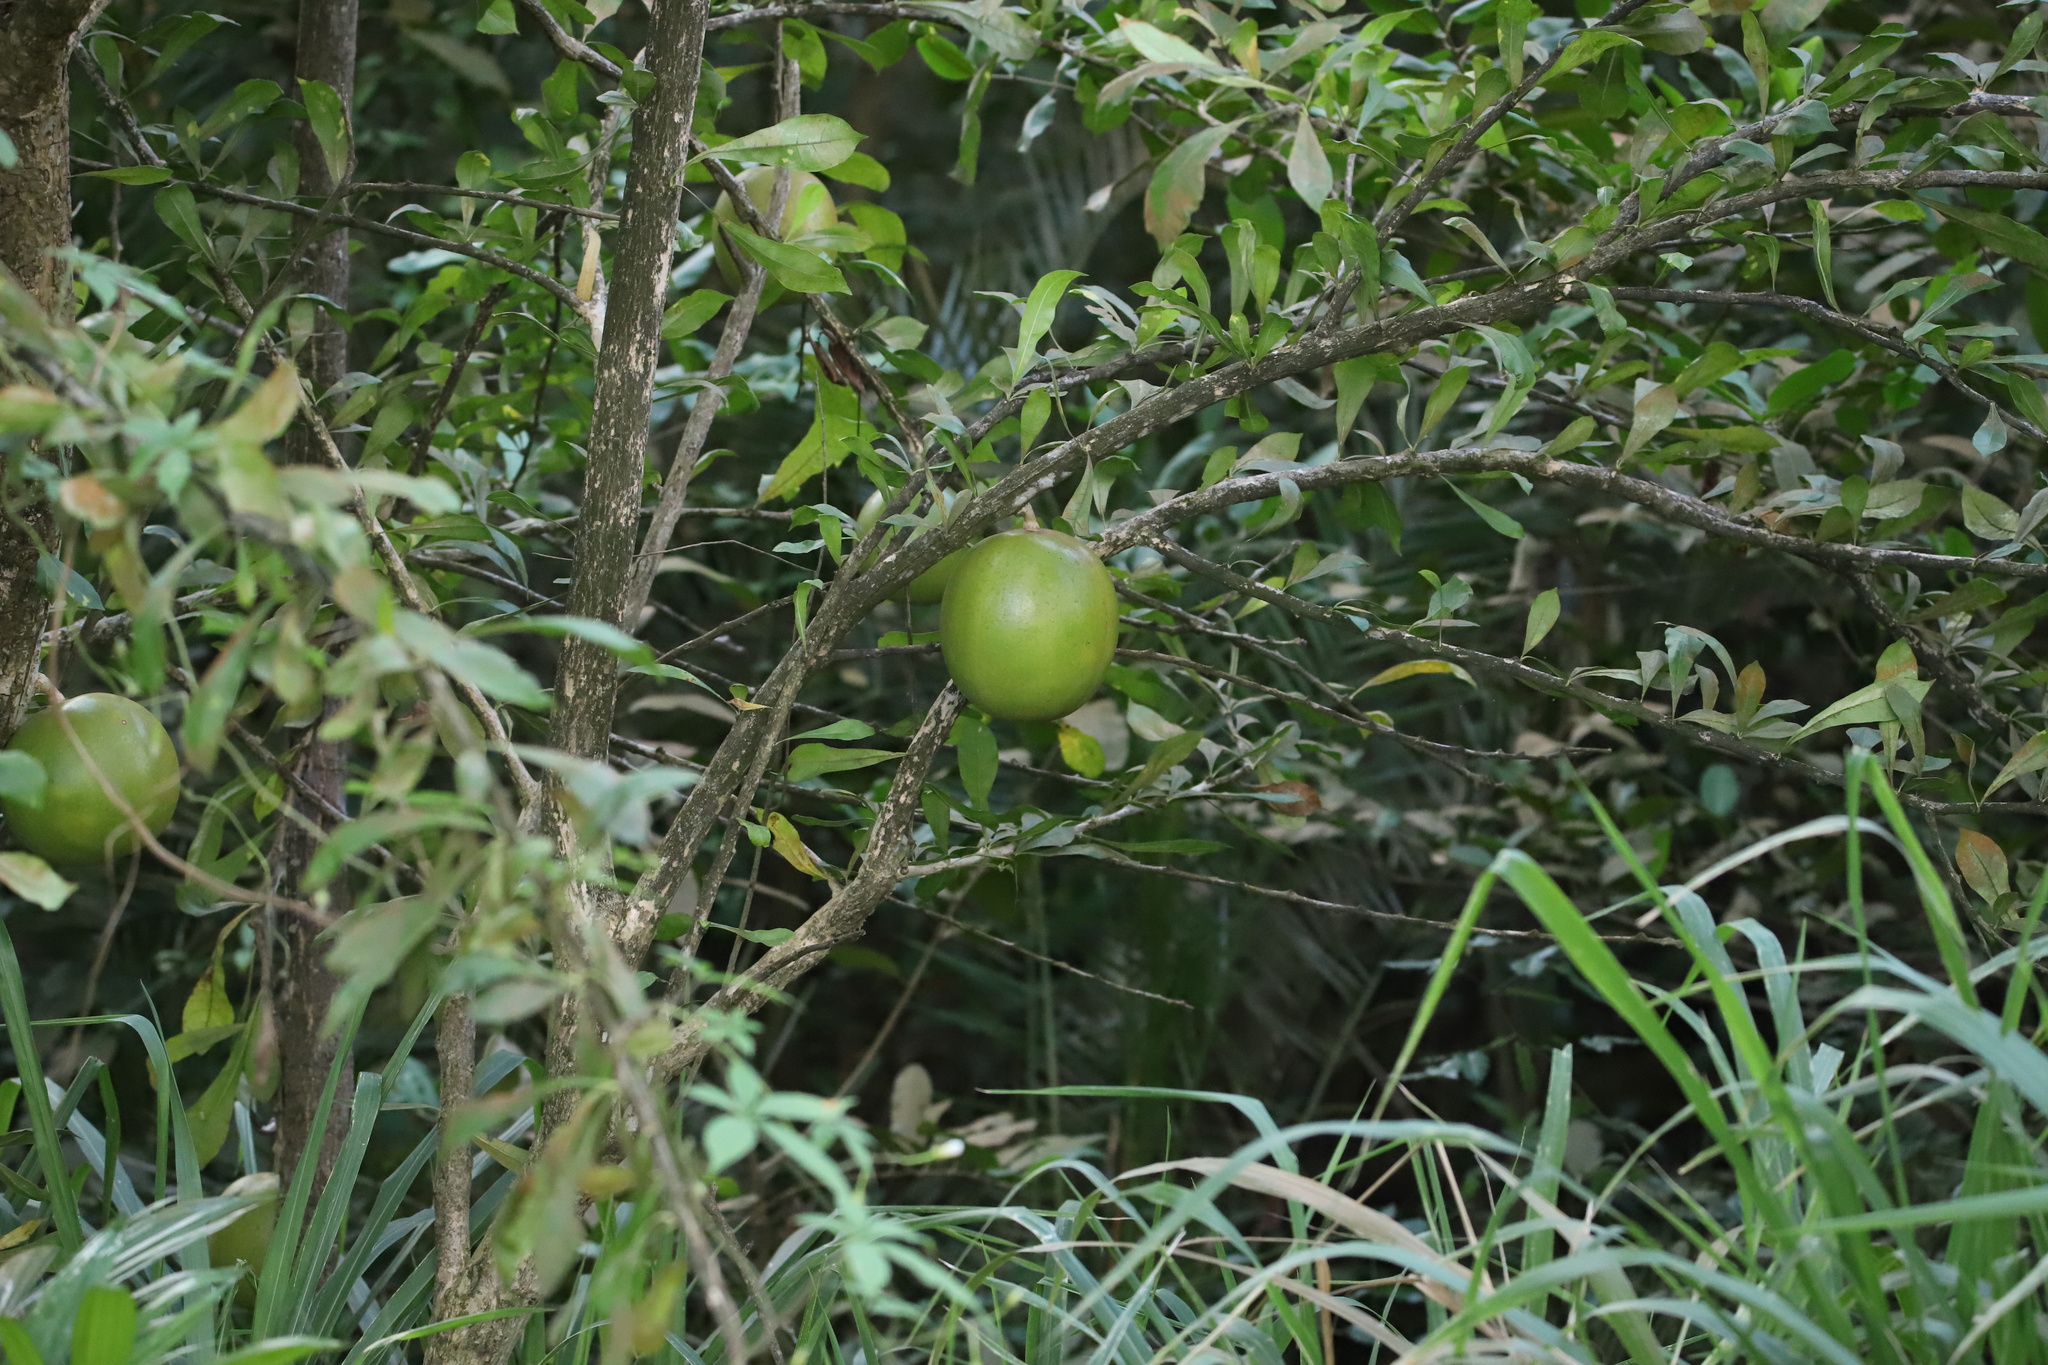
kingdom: Plantae
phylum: Tracheophyta
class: Magnoliopsida
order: Lamiales
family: Bignoniaceae
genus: Crescentia
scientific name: Crescentia cujete
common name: Calabash
